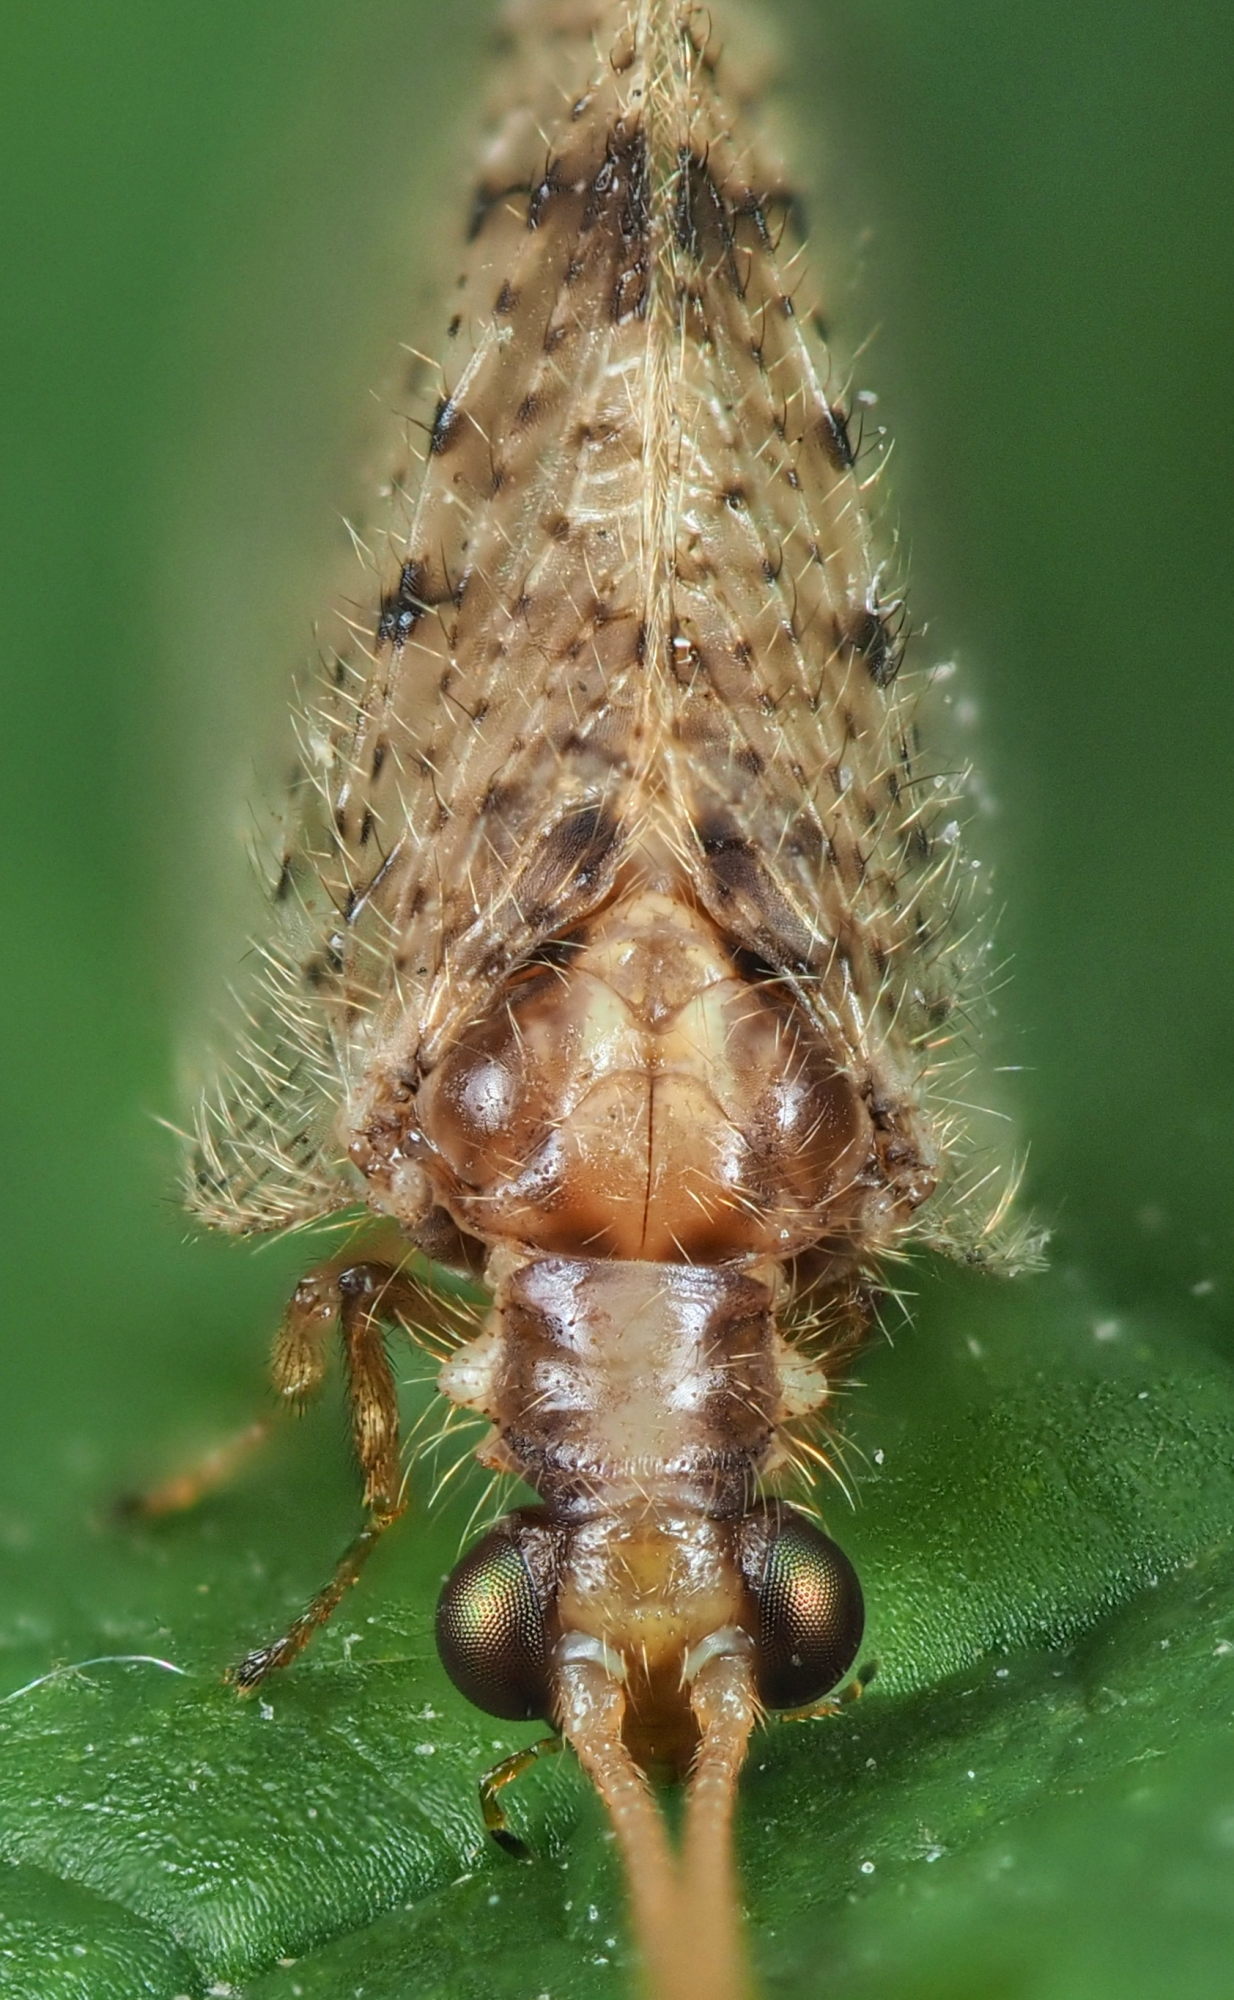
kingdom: Animalia
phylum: Arthropoda
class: Insecta
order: Neuroptera
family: Hemerobiidae
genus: Hemerobius
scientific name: Hemerobius humulinus
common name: Humulin brown lacewing
